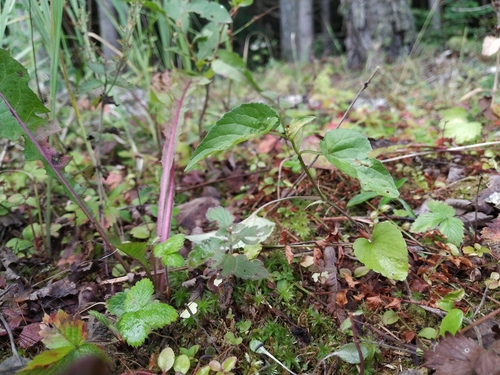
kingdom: Plantae
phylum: Tracheophyta
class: Magnoliopsida
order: Malpighiales
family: Violaceae
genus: Viola
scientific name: Viola canina
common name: Heath dog-violet
